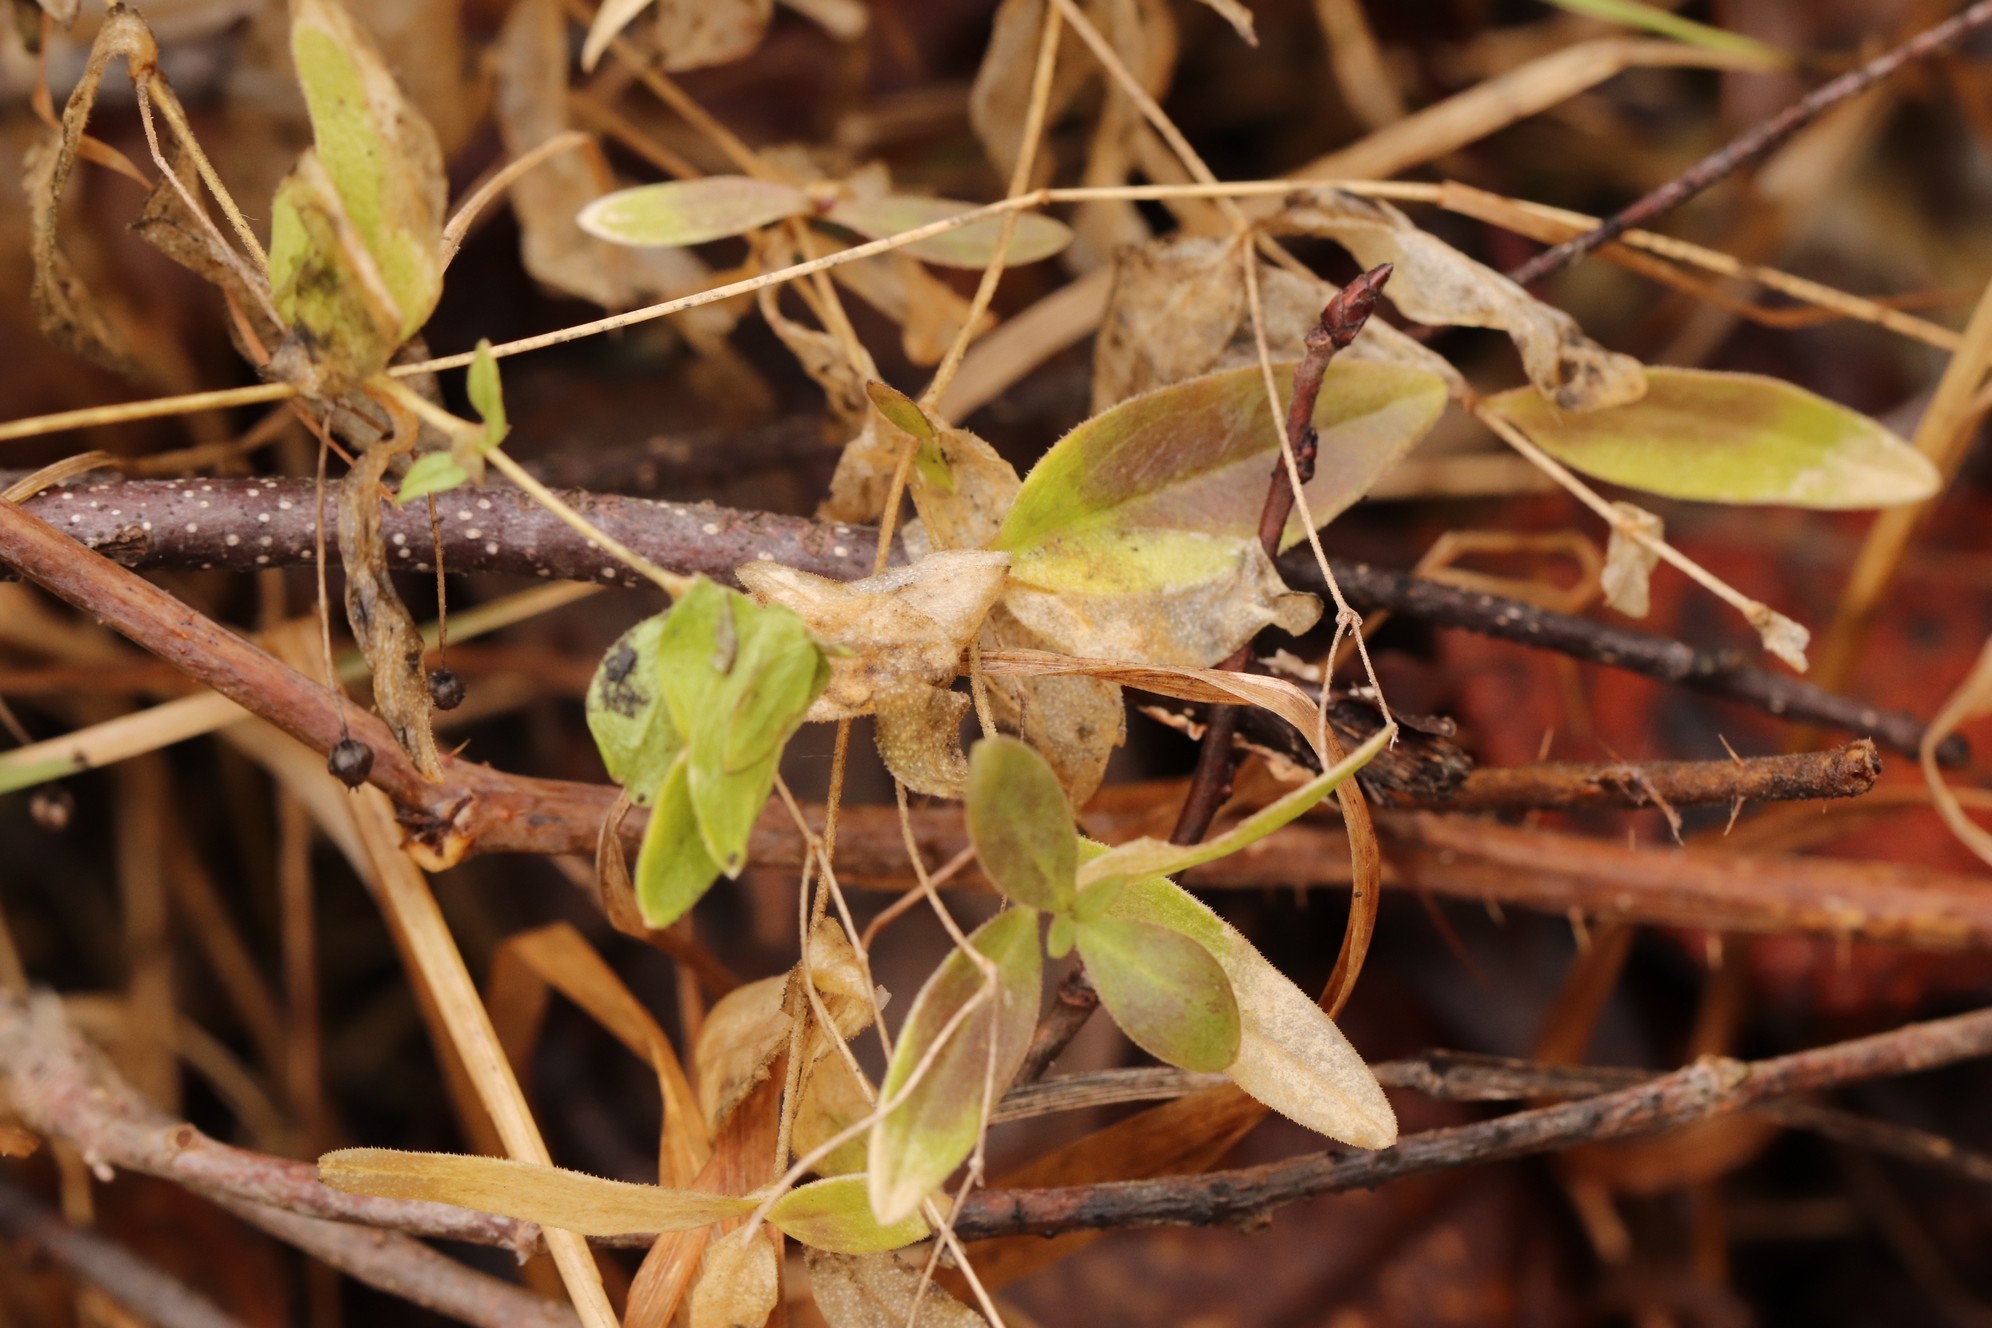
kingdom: Plantae
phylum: Tracheophyta
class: Magnoliopsida
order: Caryophyllales
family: Caryophyllaceae
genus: Moehringia
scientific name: Moehringia lateriflora
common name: Blunt-leaved sandwort
